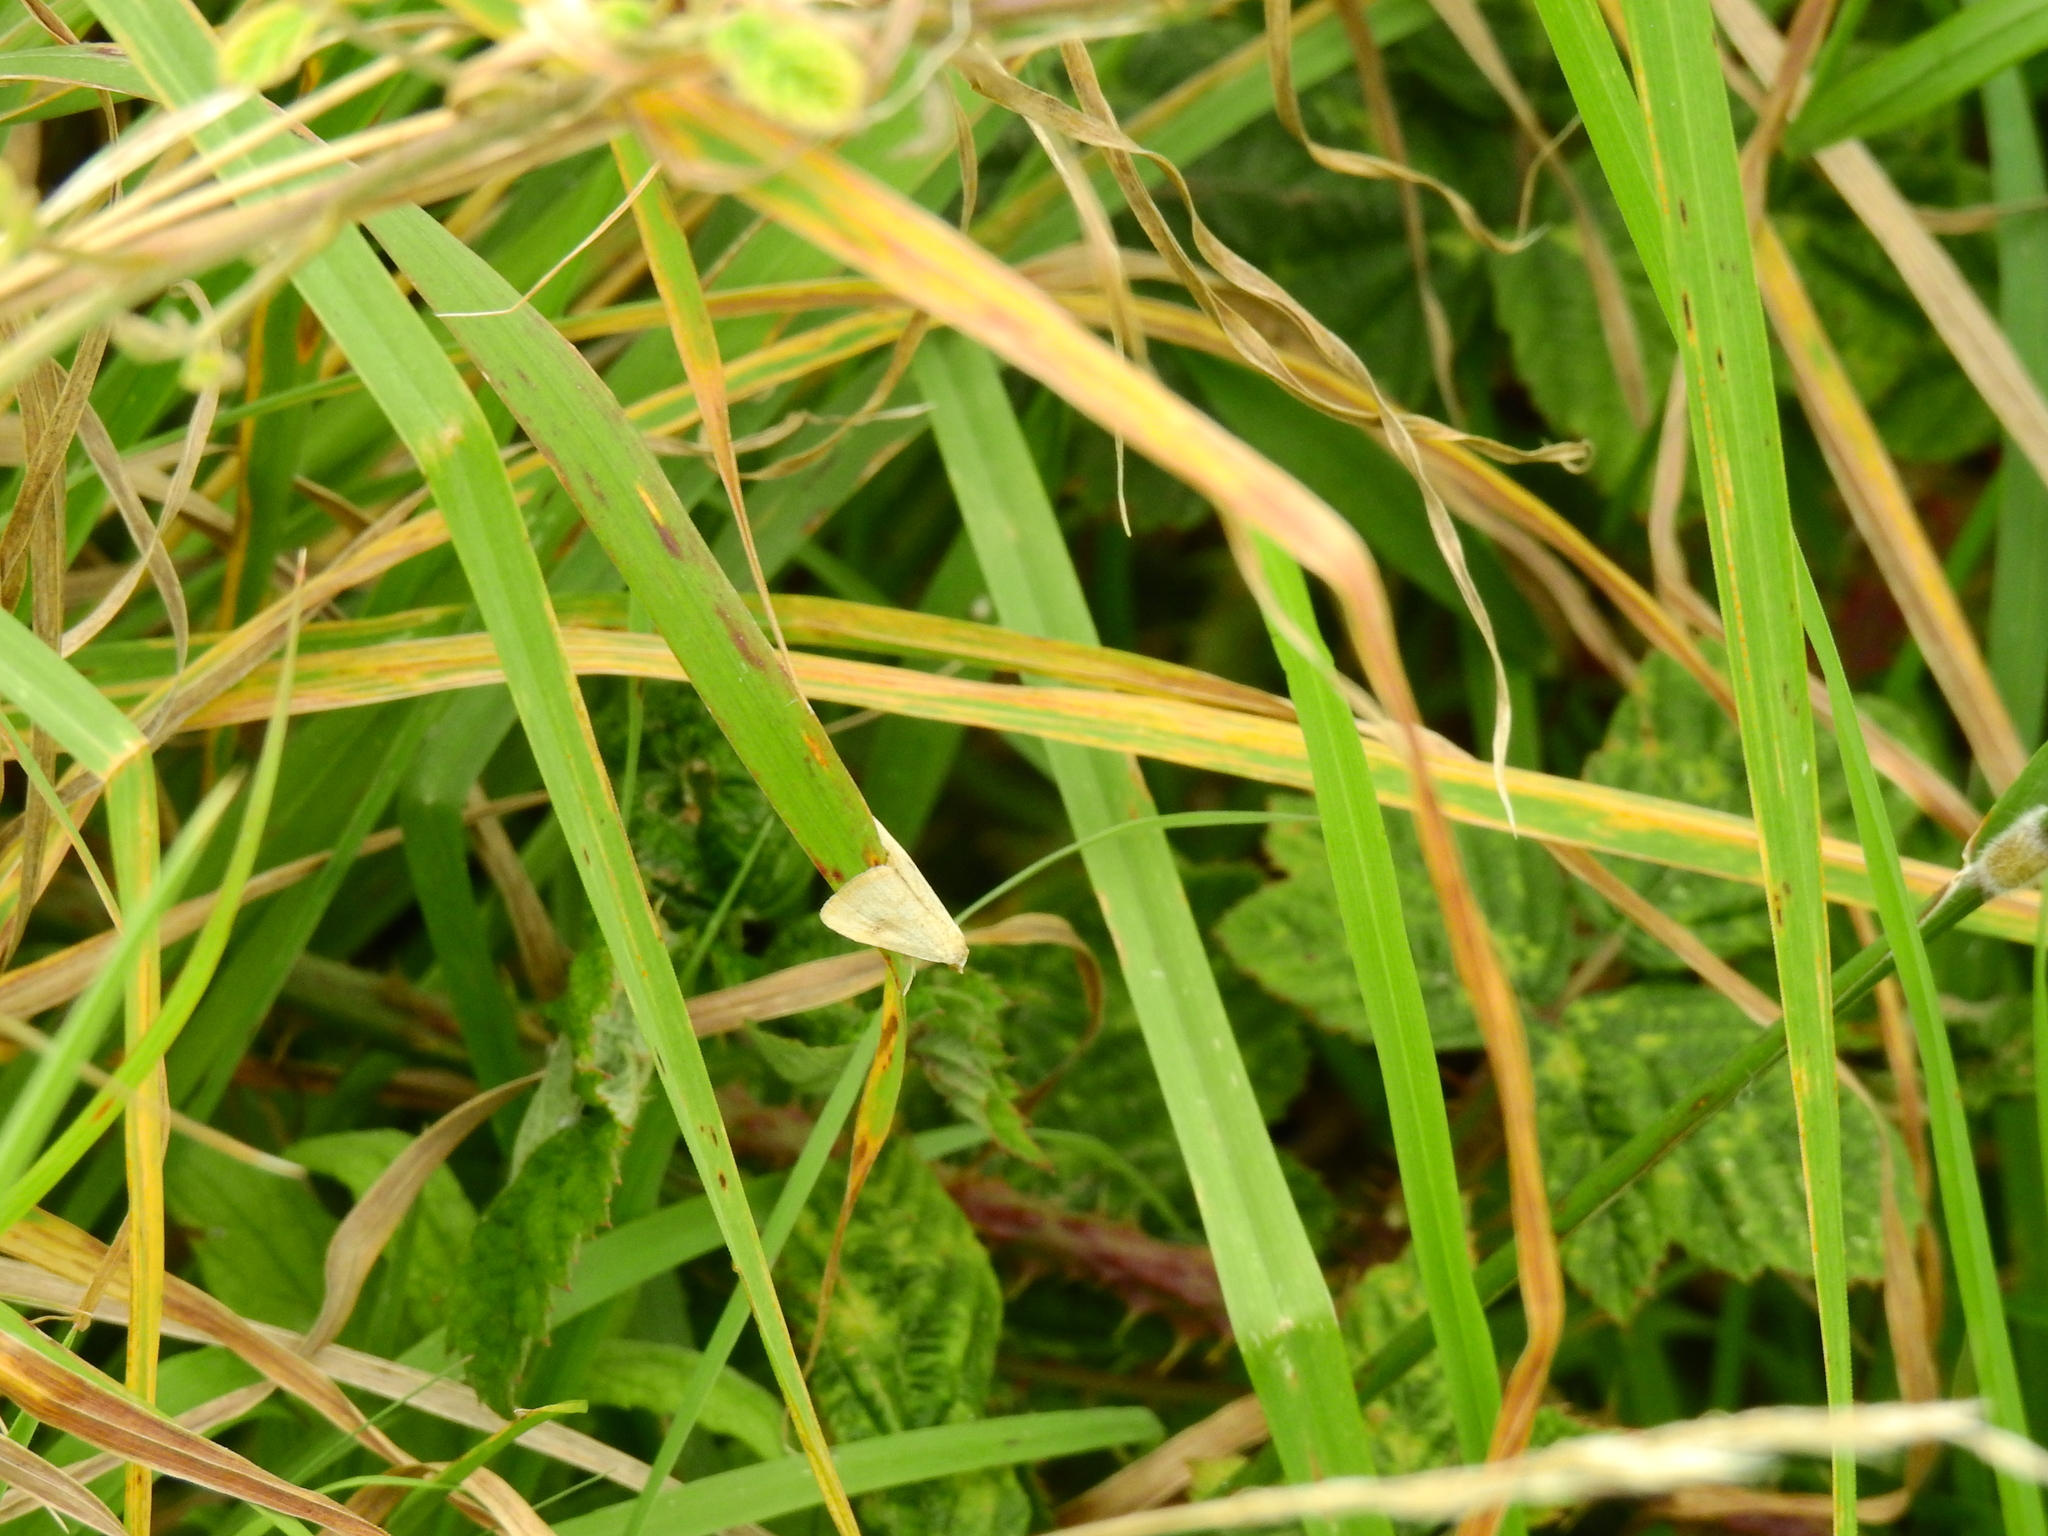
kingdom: Animalia
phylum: Arthropoda
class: Insecta
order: Lepidoptera
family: Erebidae
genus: Rivula
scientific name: Rivula sericealis
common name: Straw dot
